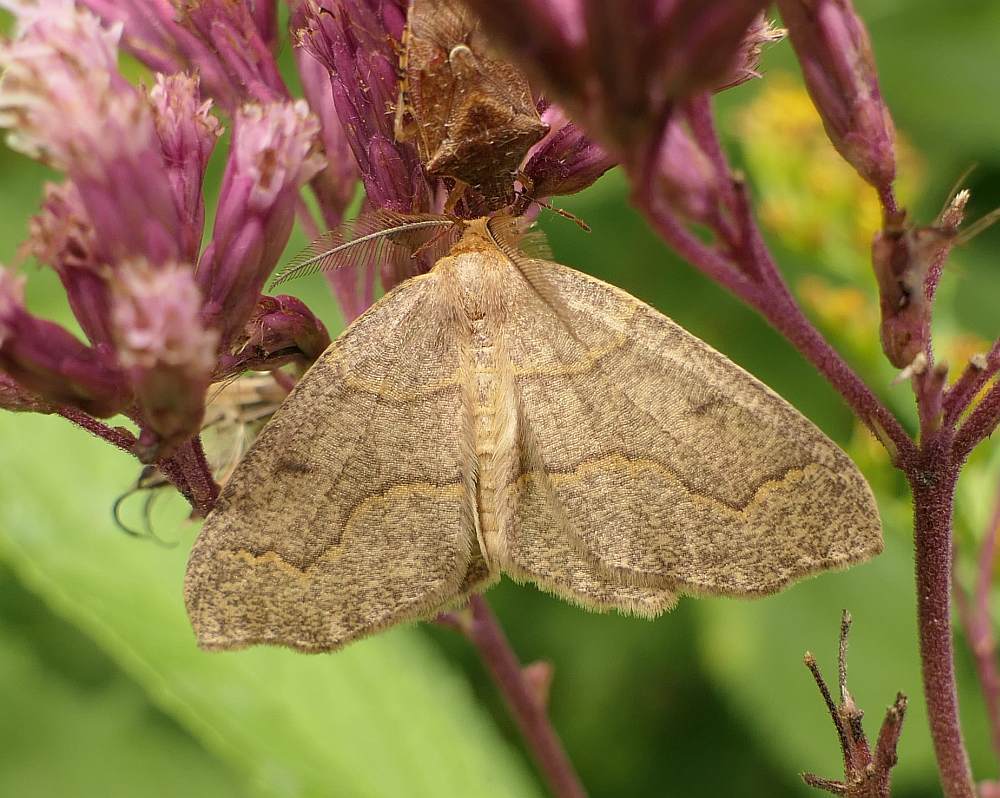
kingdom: Animalia
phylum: Arthropoda
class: Insecta
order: Lepidoptera
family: Geometridae
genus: Lambdina
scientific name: Lambdina fiscellaria
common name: Hemlock looper
